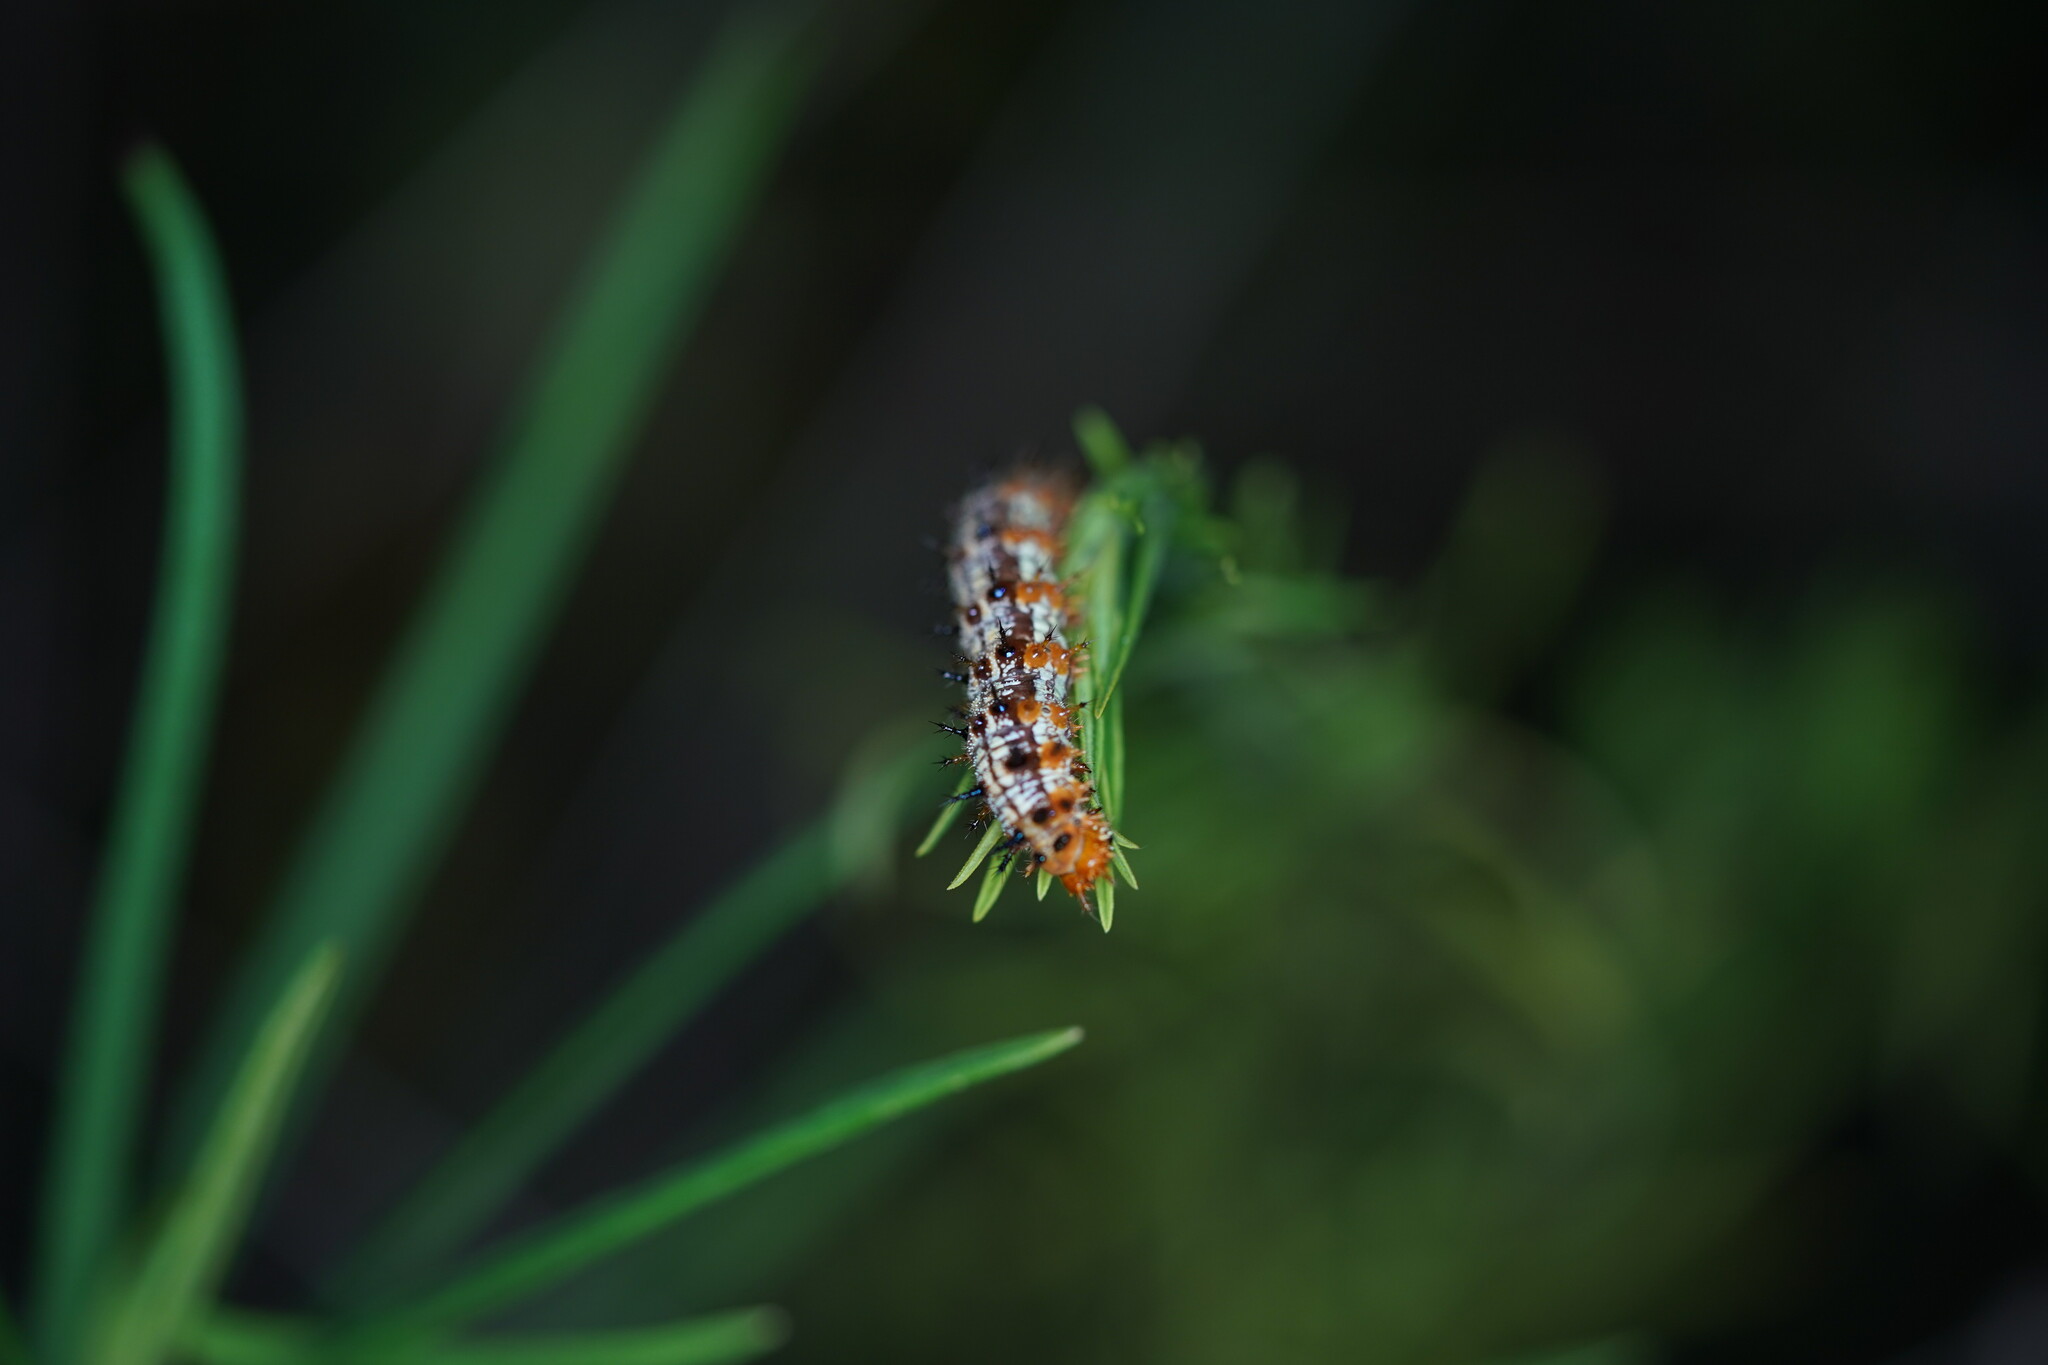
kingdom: Animalia
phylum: Arthropoda
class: Insecta
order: Lepidoptera
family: Nymphalidae
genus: Junonia
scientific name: Junonia coenia
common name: Common buckeye
